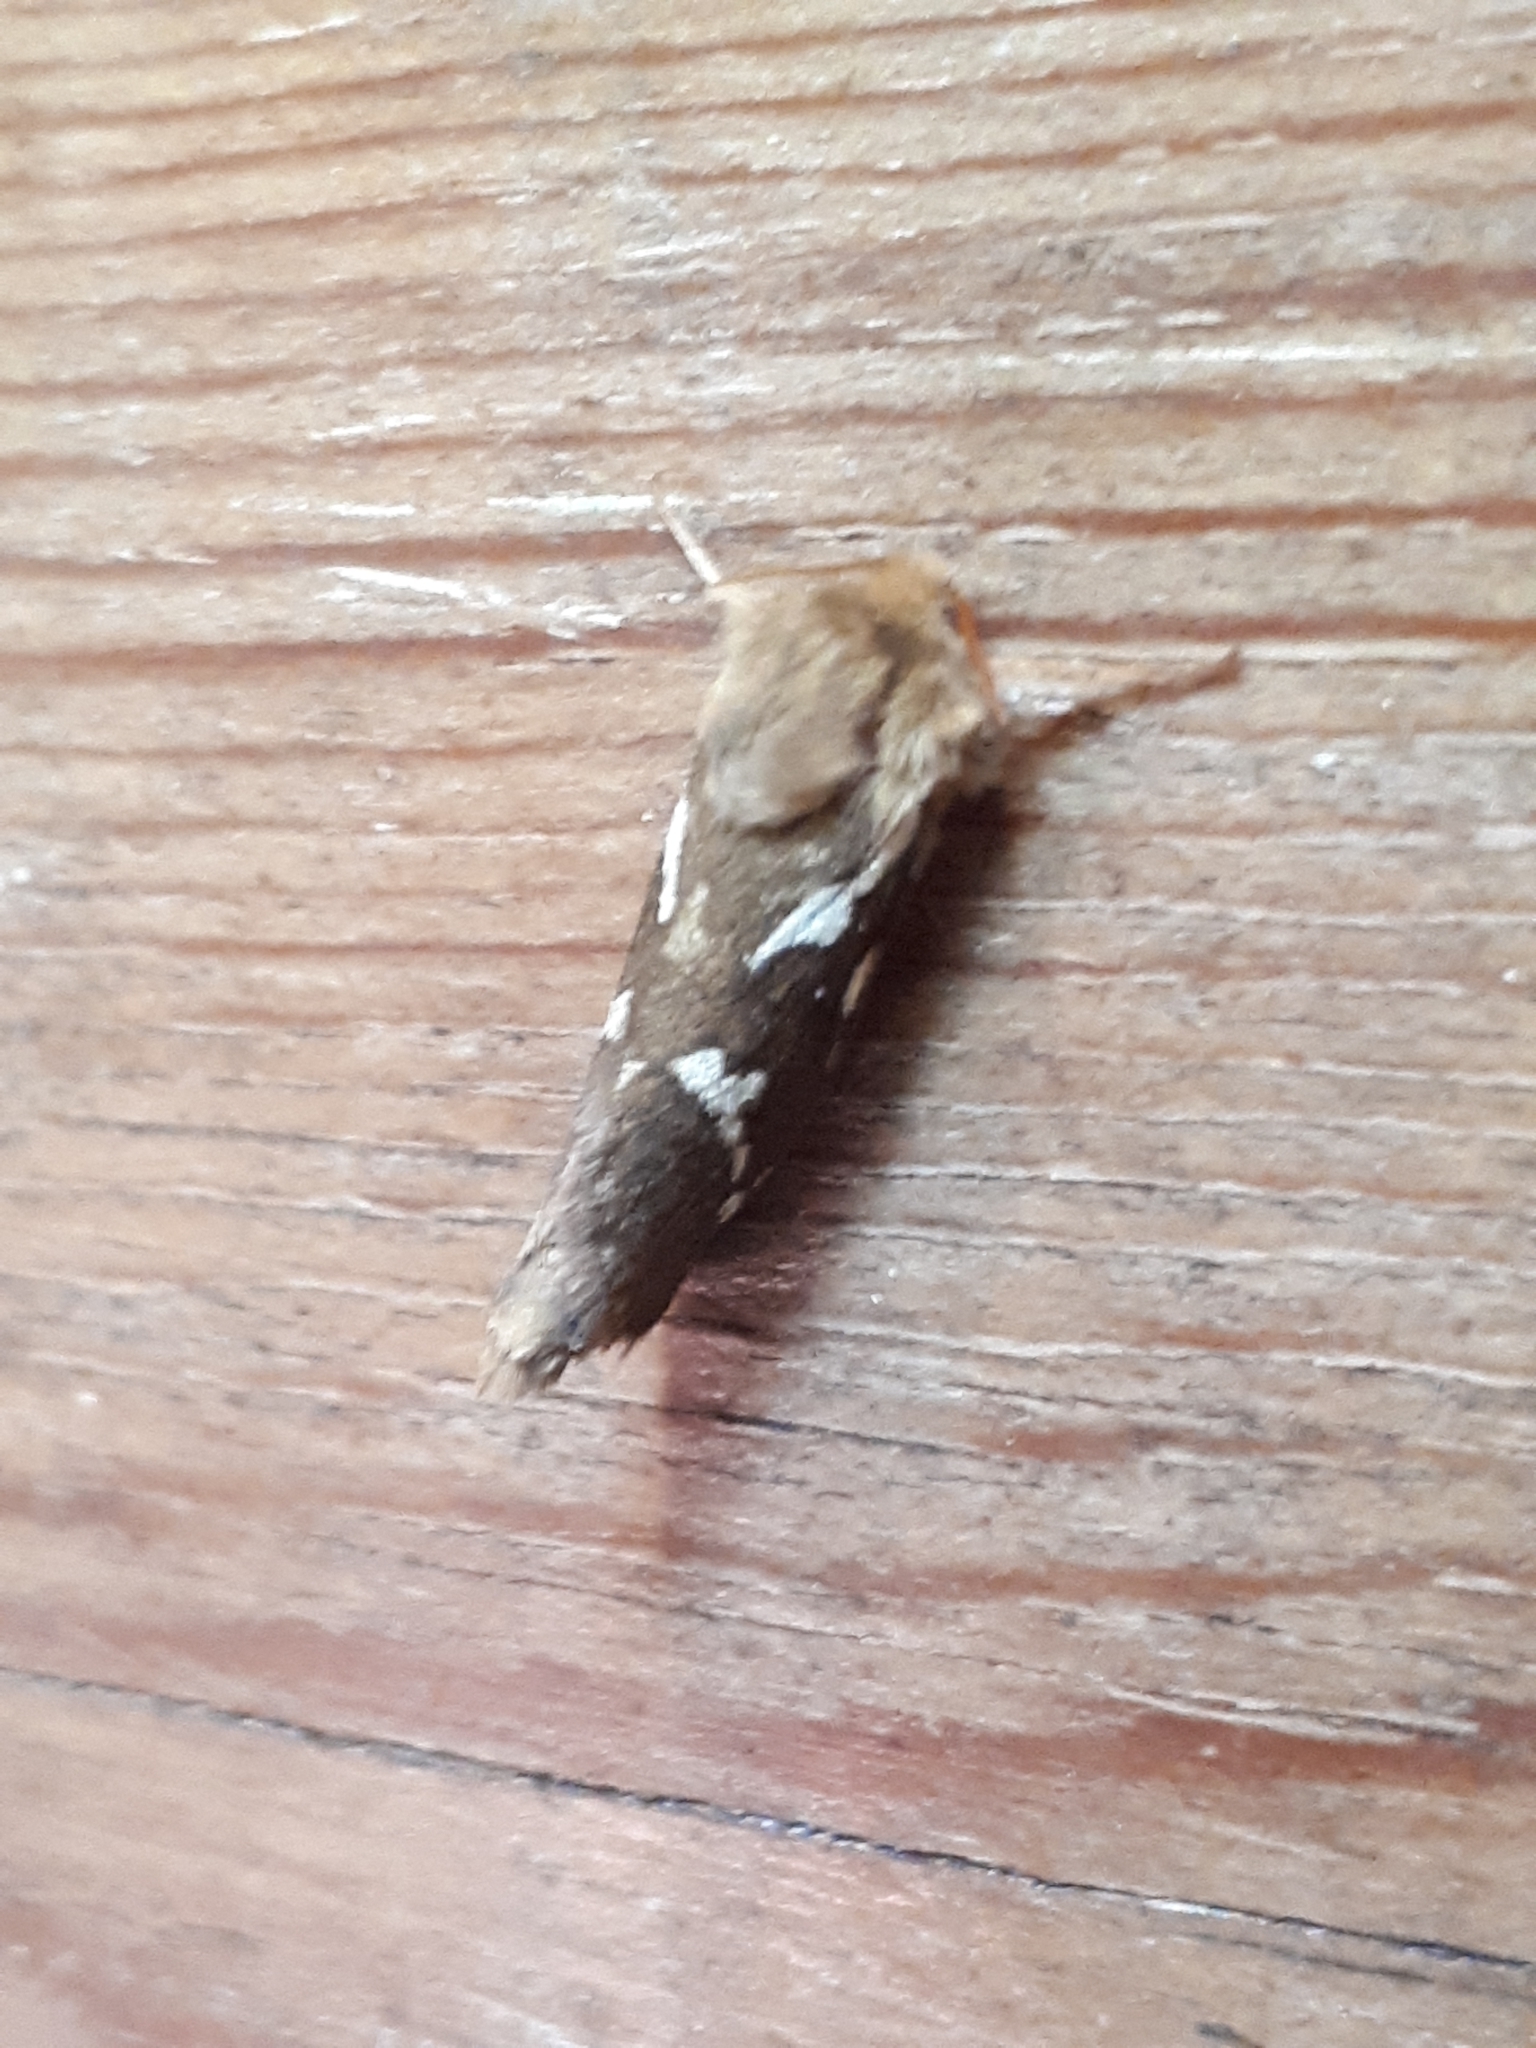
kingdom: Animalia
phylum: Arthropoda
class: Insecta
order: Lepidoptera
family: Hepialidae
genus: Korscheltellus
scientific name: Korscheltellus lupulina
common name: Common swift
